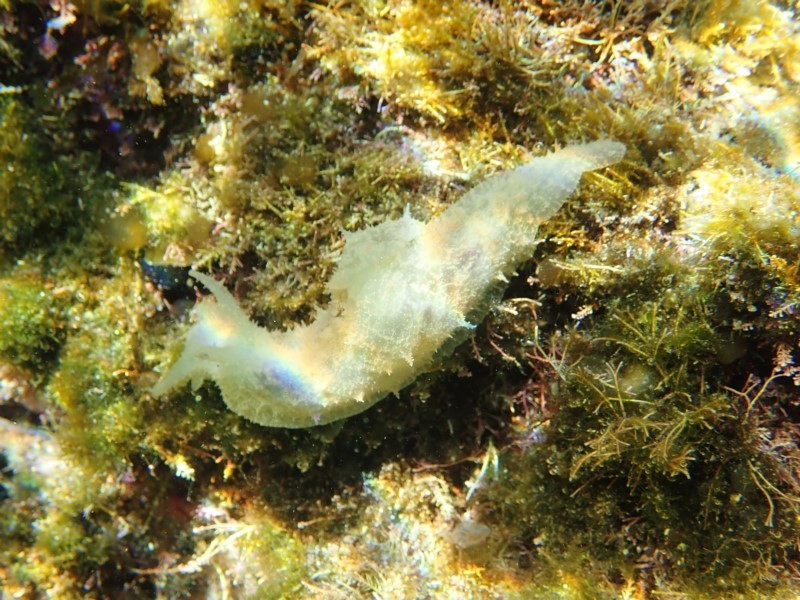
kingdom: Animalia
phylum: Mollusca
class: Gastropoda
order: Aplysiida
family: Aplysiidae
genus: Stylocheilus
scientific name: Stylocheilus striatus
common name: Striated seahare
